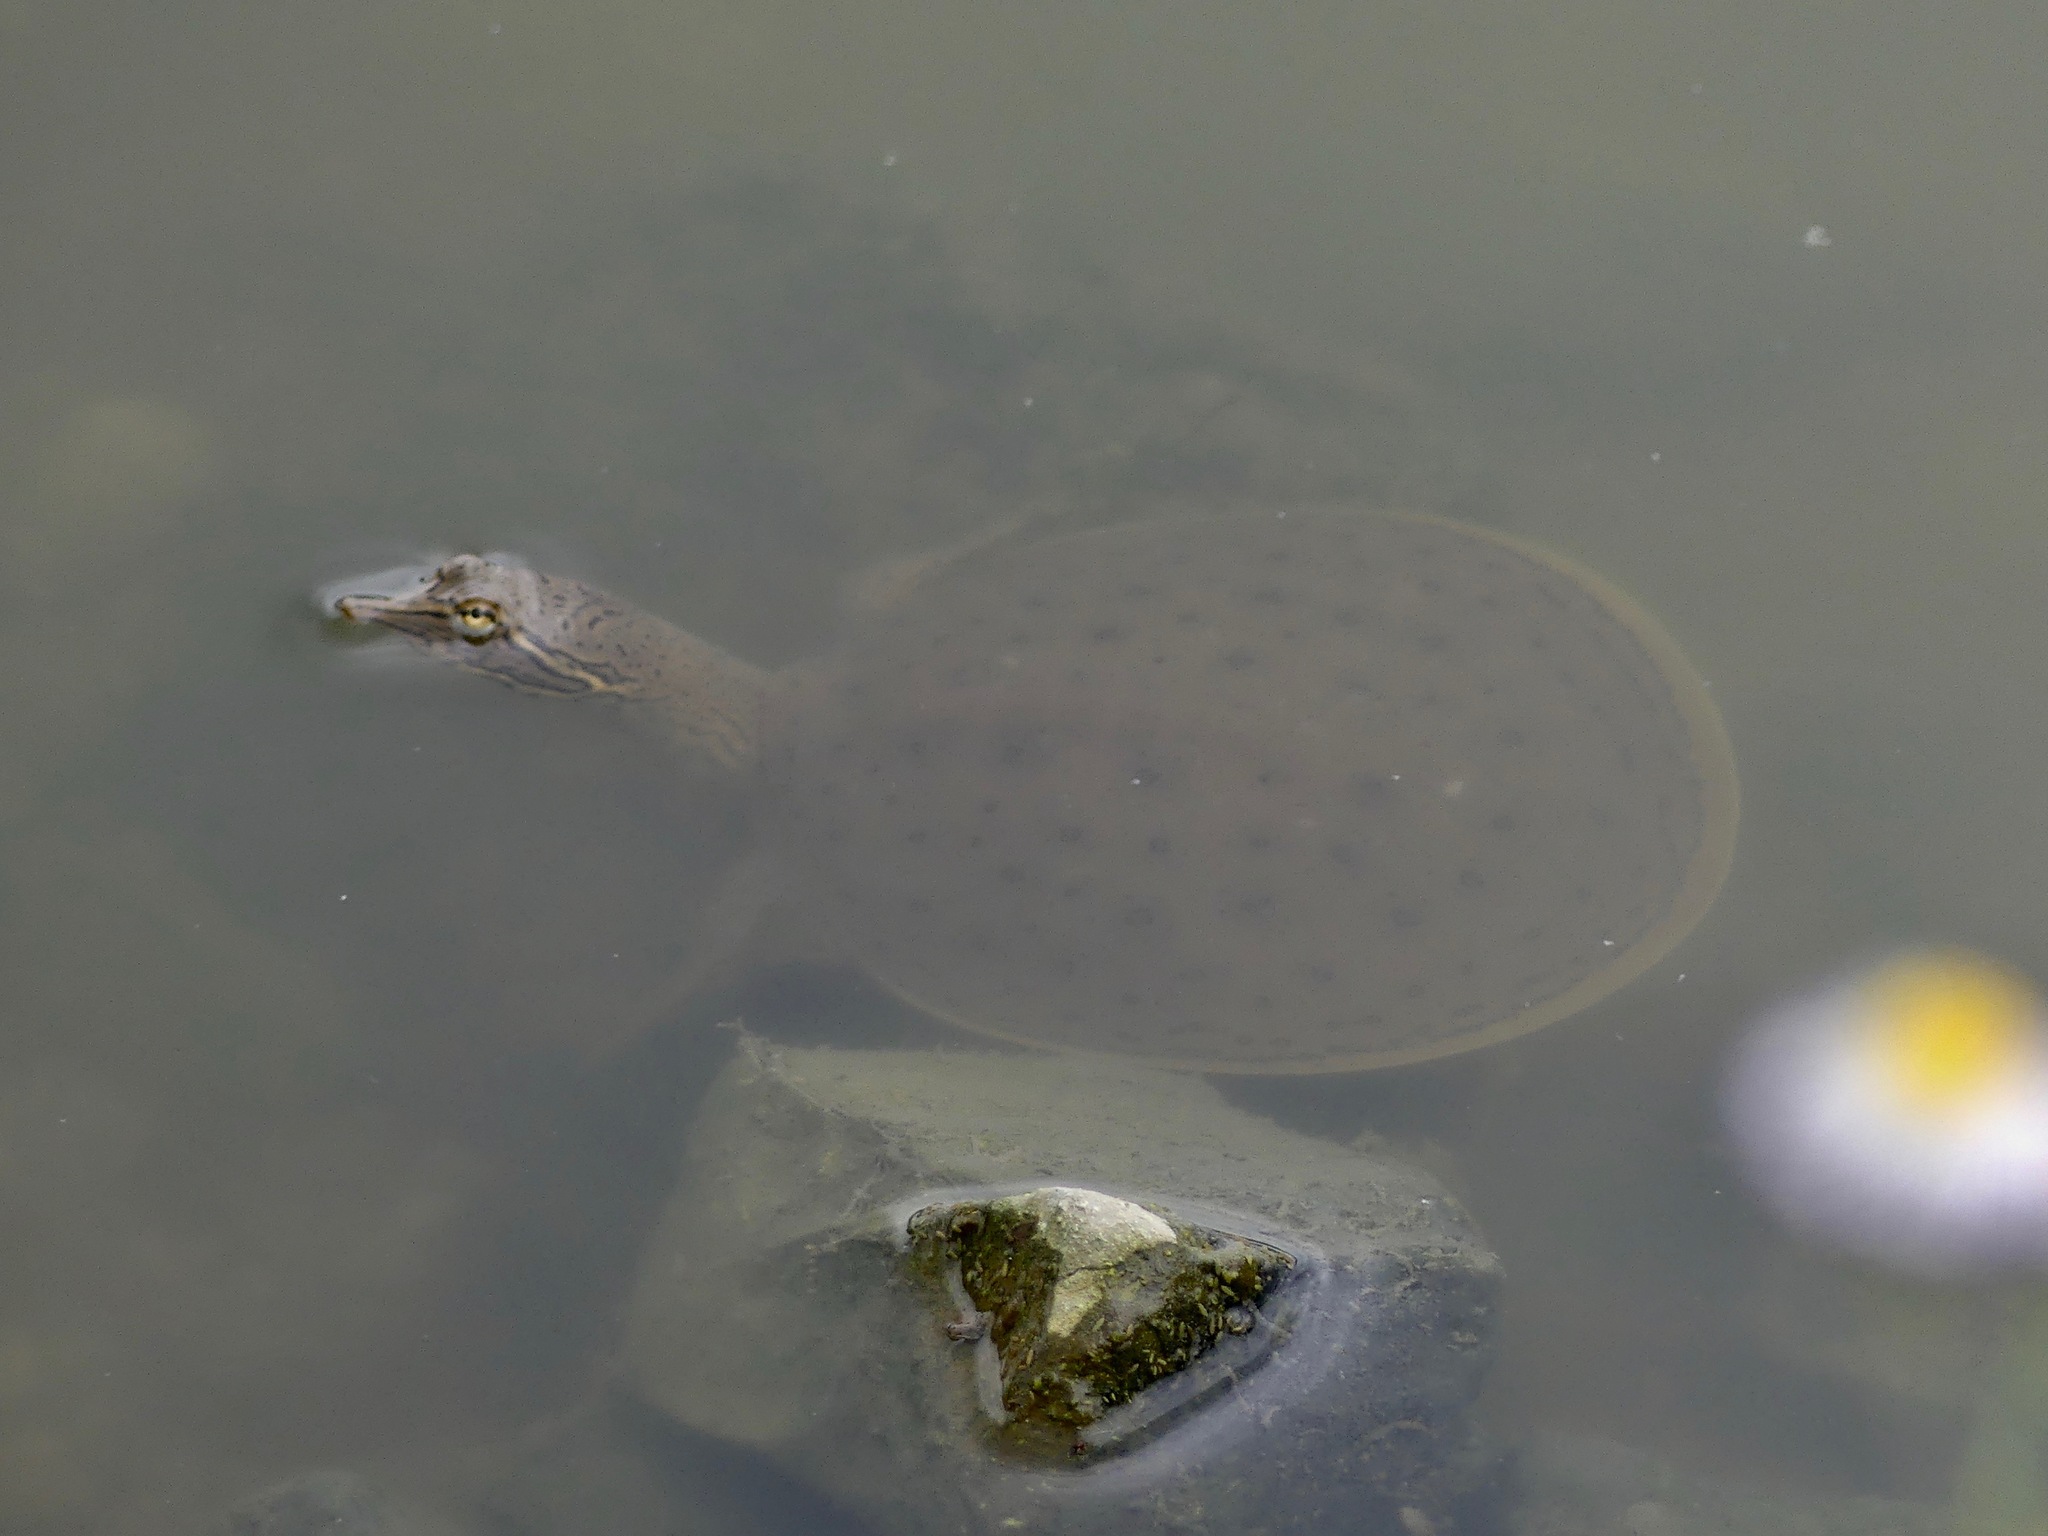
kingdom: Animalia
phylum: Chordata
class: Testudines
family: Trionychidae
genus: Apalone
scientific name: Apalone spinifera
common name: Spiny softshell turtle
